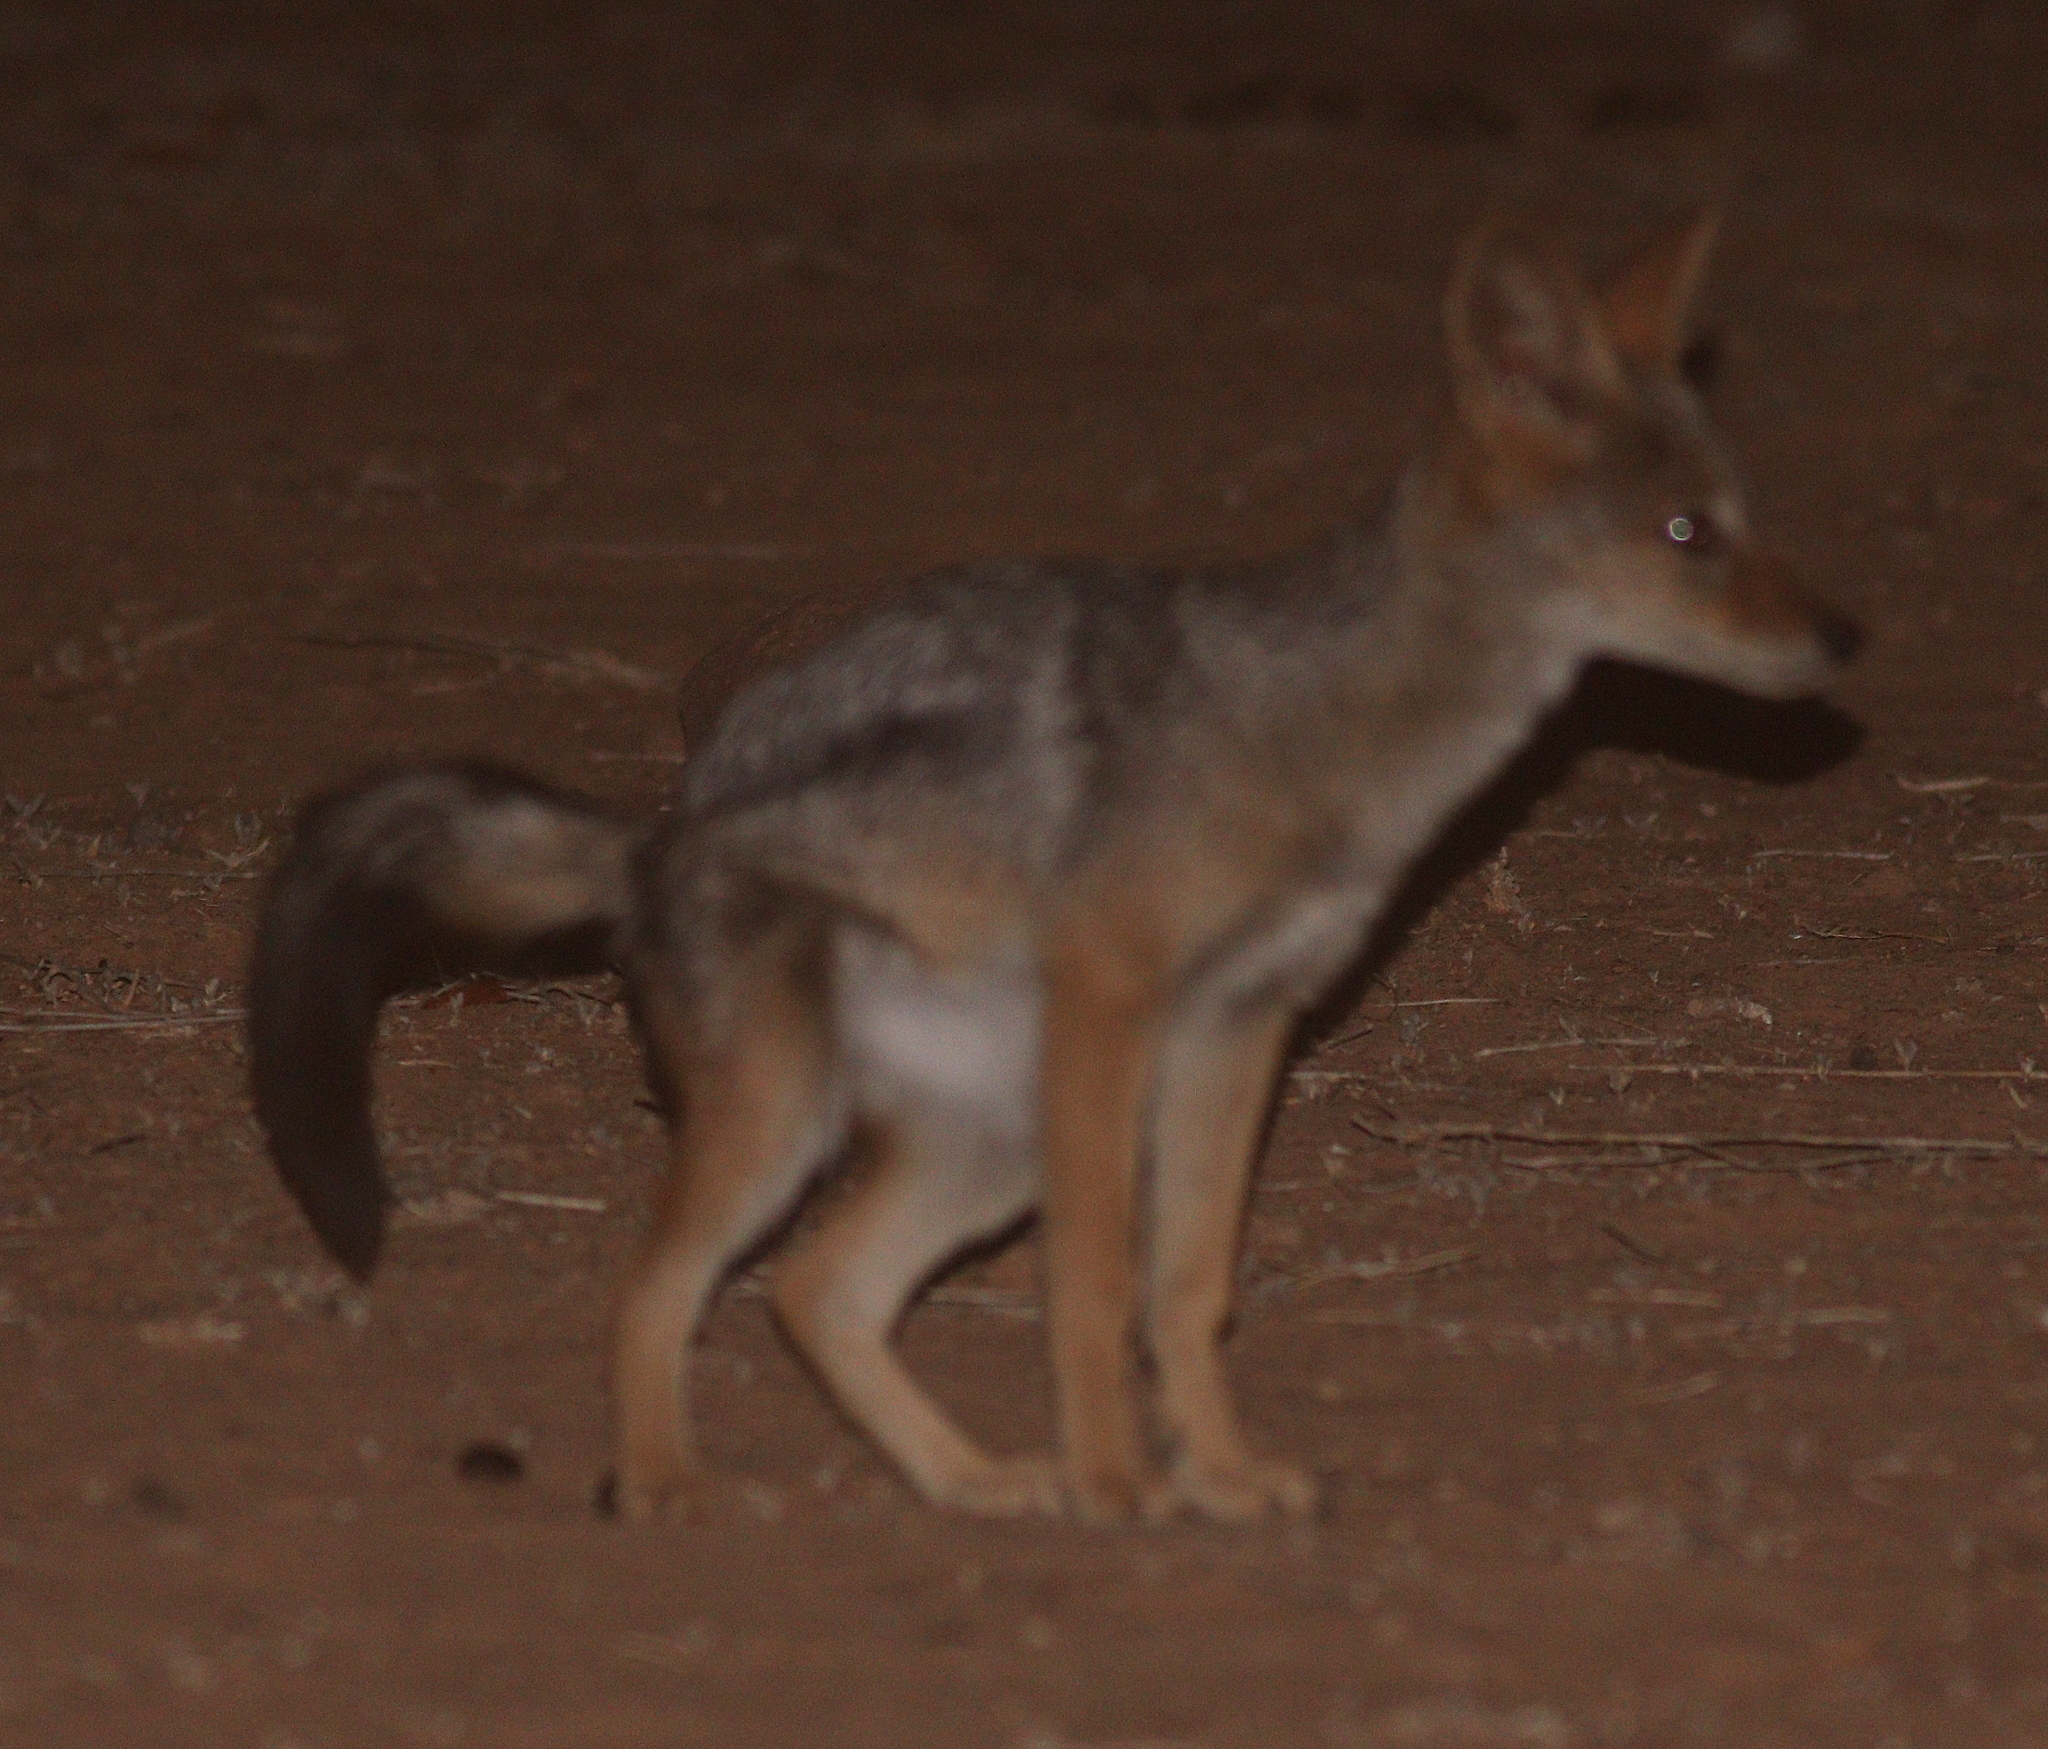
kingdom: Animalia
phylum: Chordata
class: Mammalia
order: Carnivora
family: Canidae
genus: Lupulella
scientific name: Lupulella
